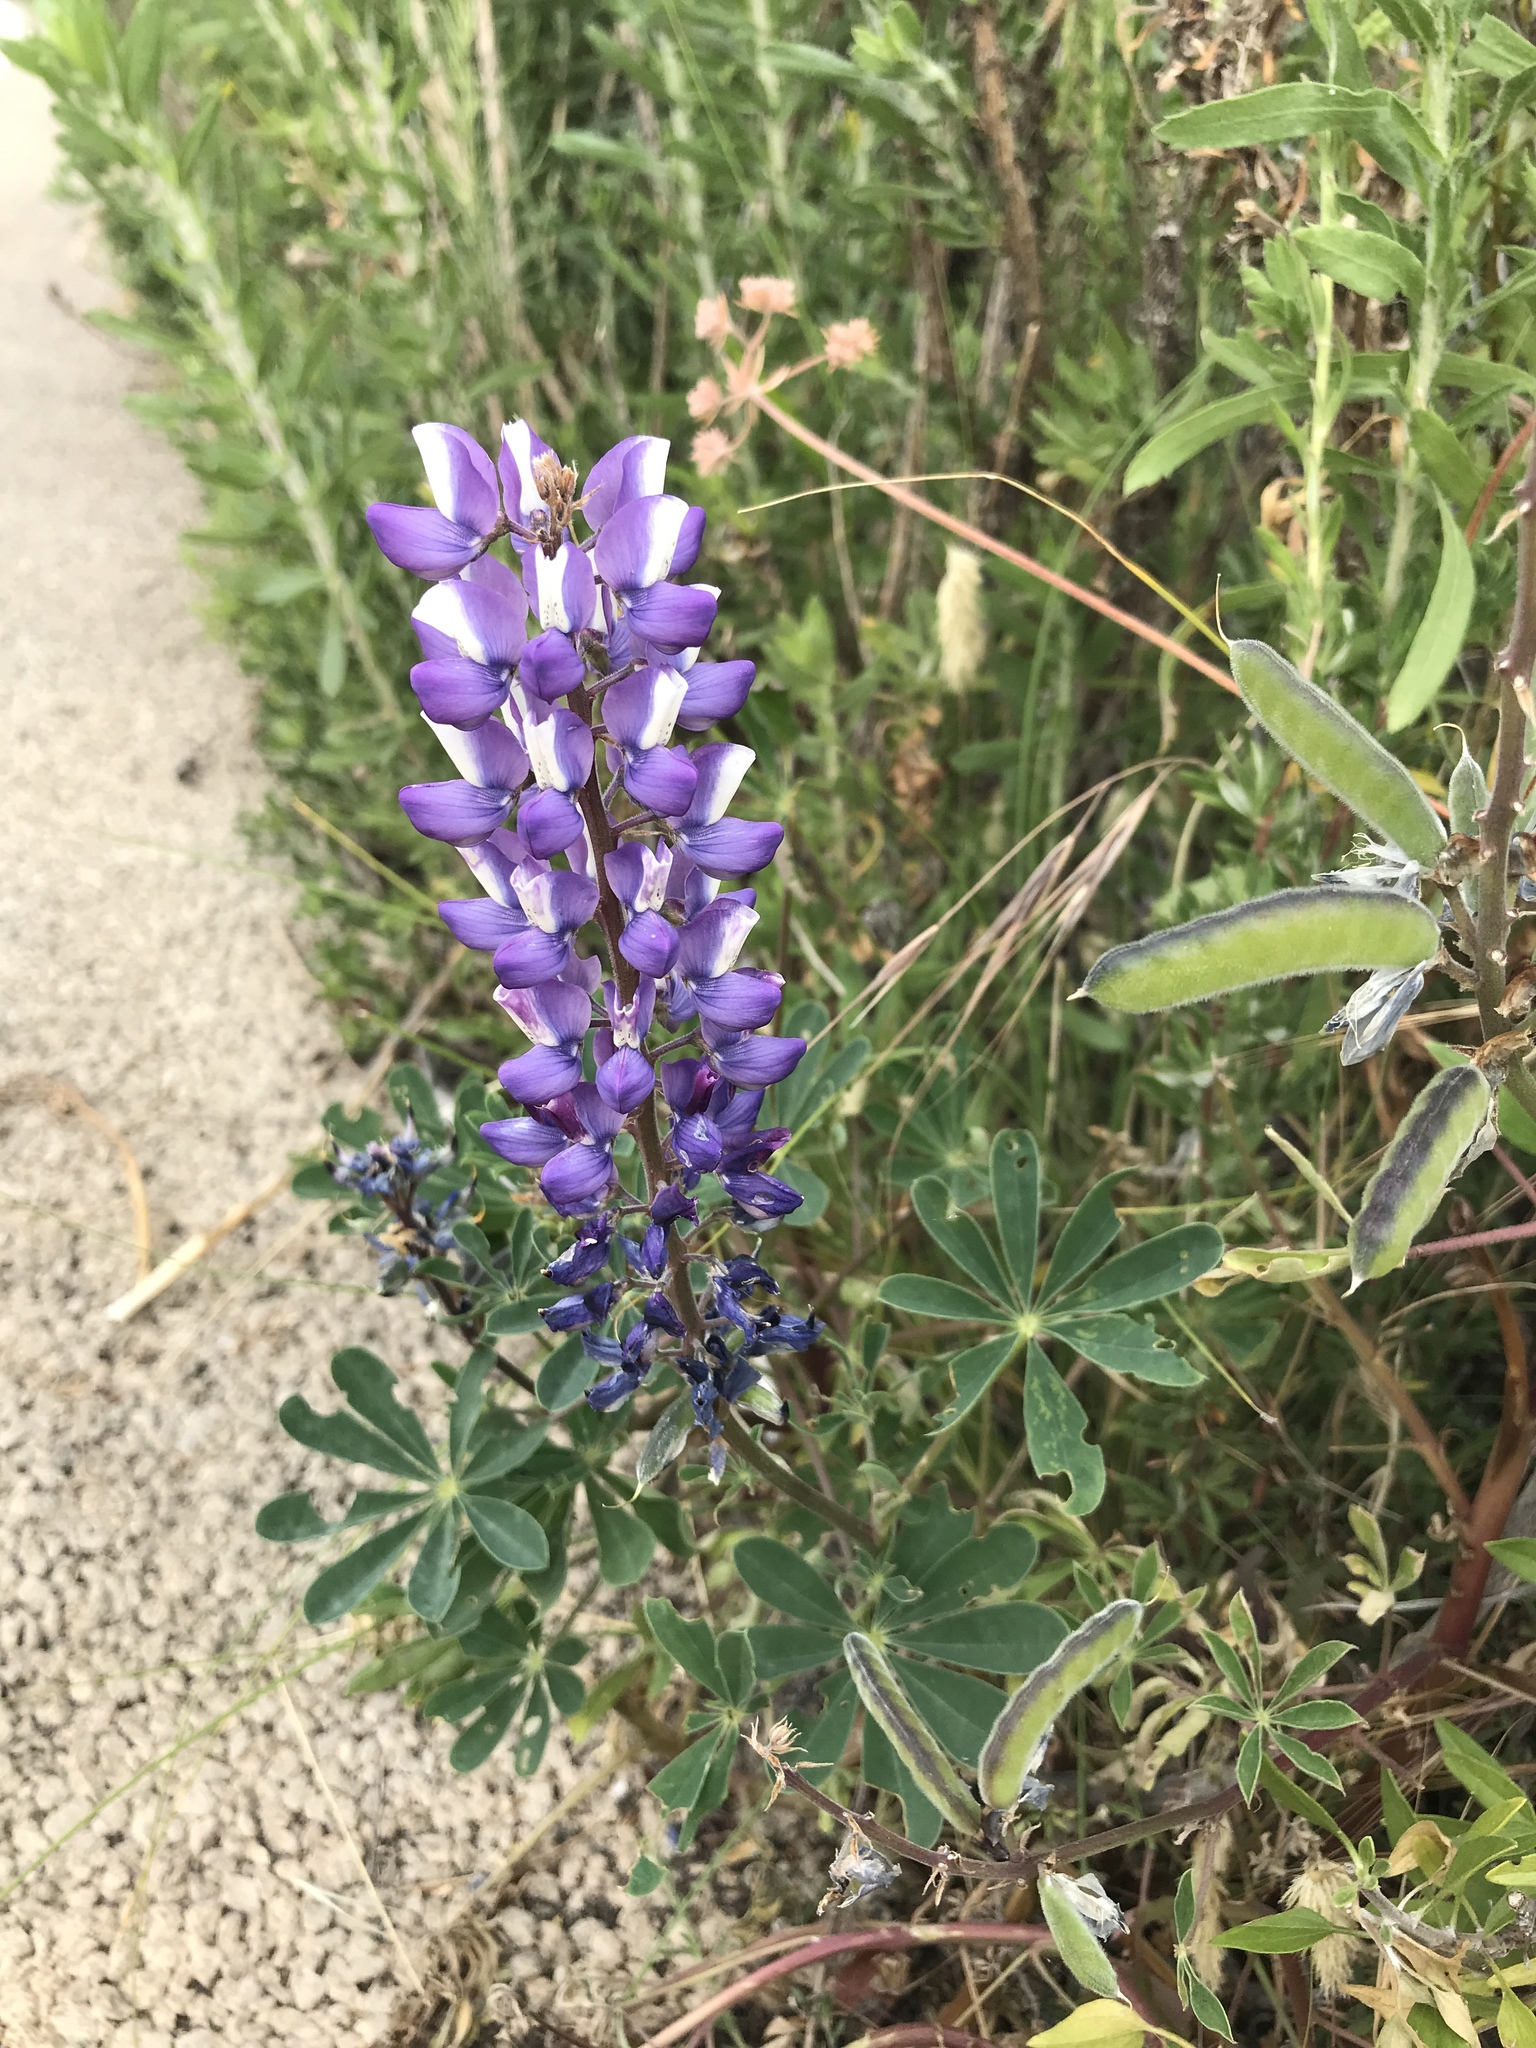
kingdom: Plantae
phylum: Tracheophyta
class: Magnoliopsida
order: Fabales
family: Fabaceae
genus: Lupinus
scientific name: Lupinus succulentus
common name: Arroyo lupine
